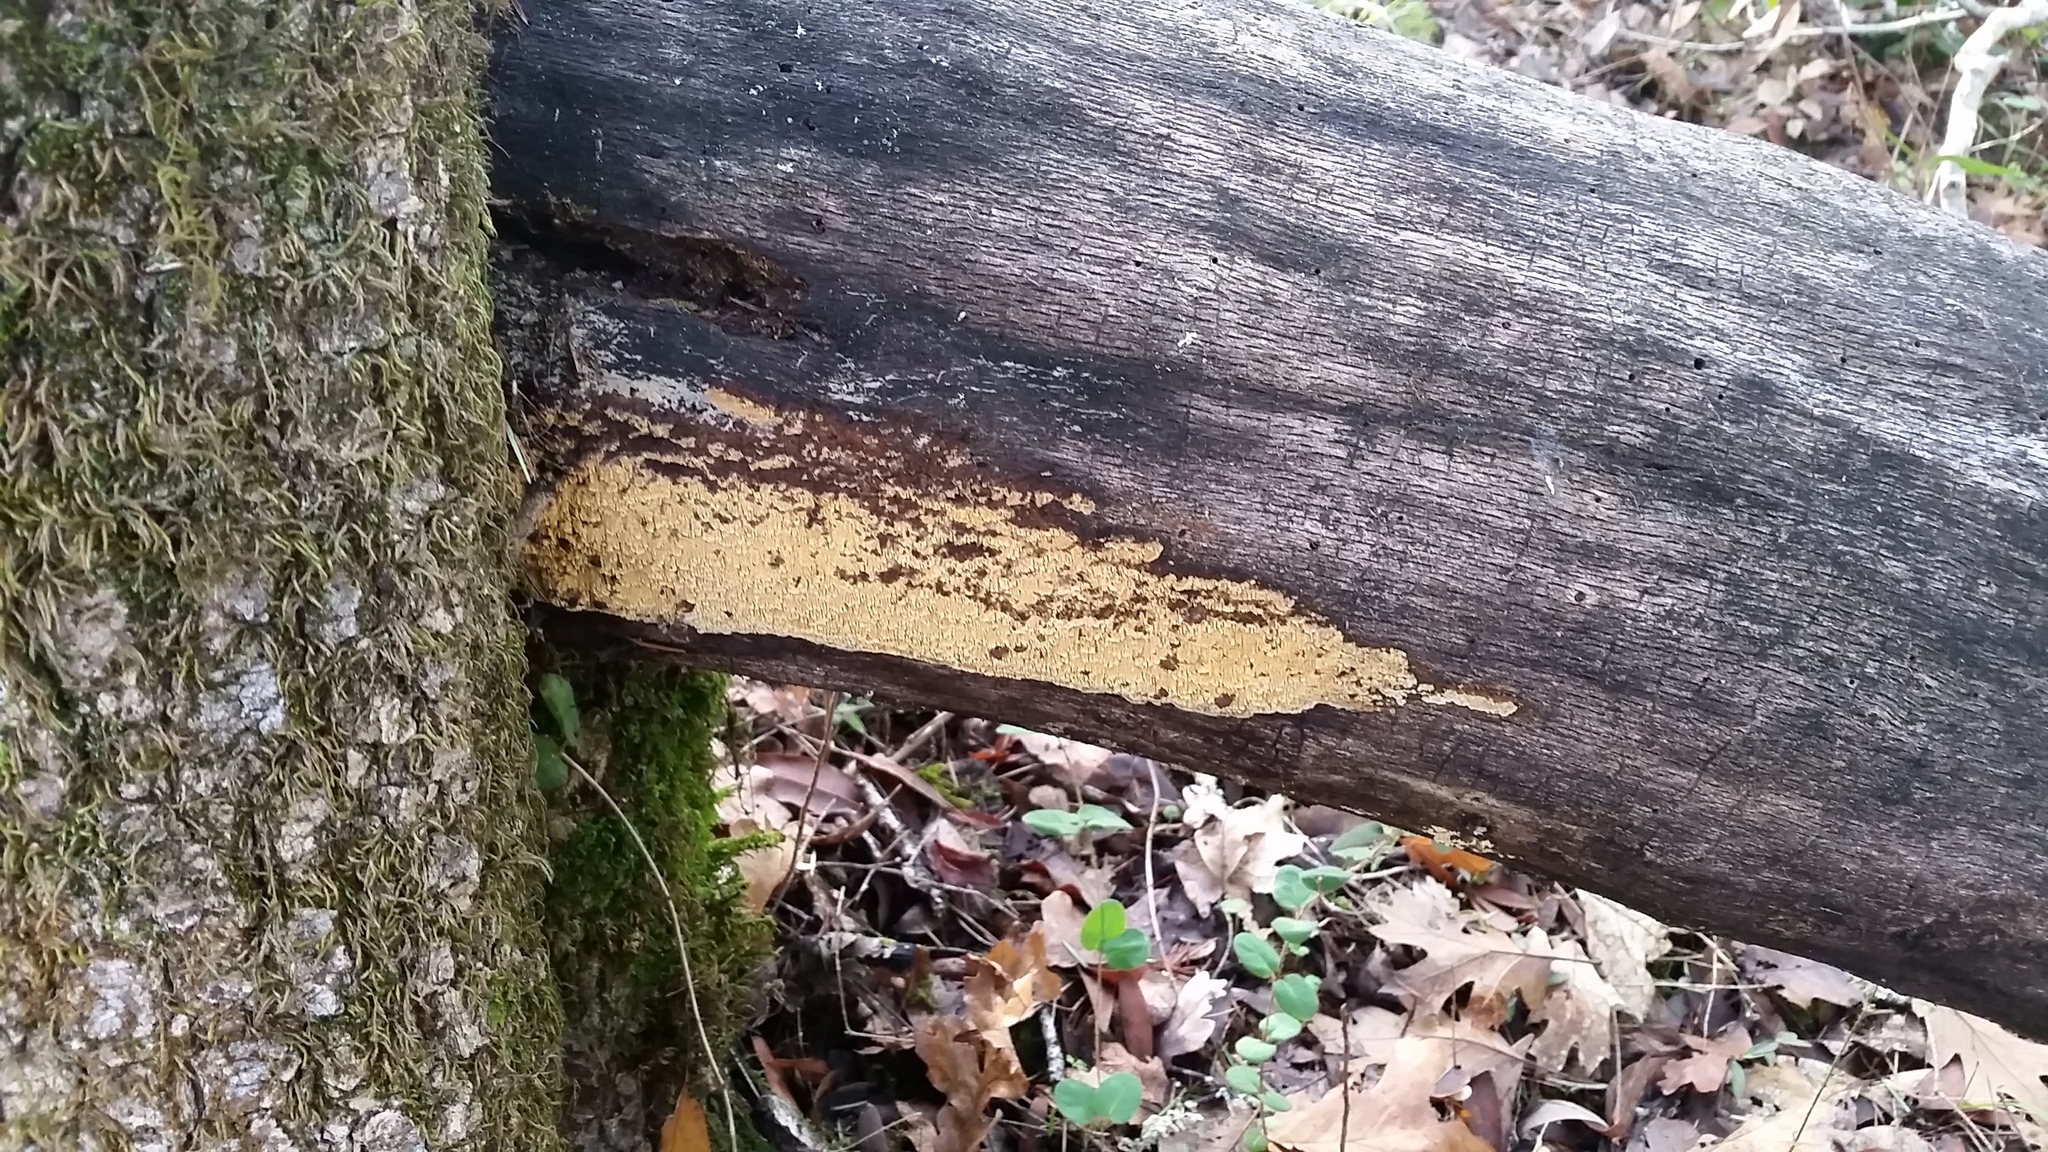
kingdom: Fungi
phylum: Basidiomycota
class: Agaricomycetes
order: Polyporales
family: Phanerochaetaceae
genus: Pirex
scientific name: Pirex concentricus
